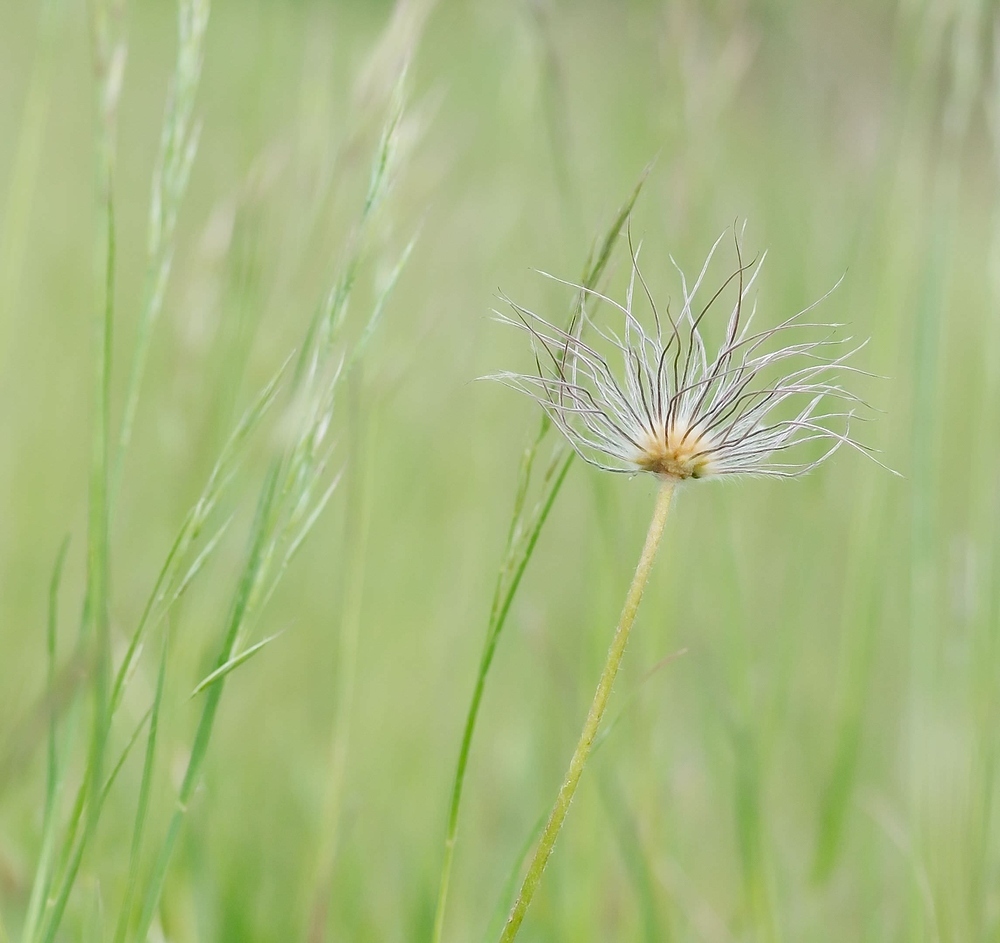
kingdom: Plantae
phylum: Tracheophyta
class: Magnoliopsida
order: Ranunculales
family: Ranunculaceae
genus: Pulsatilla
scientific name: Pulsatilla vulgaris
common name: Pasqueflower
